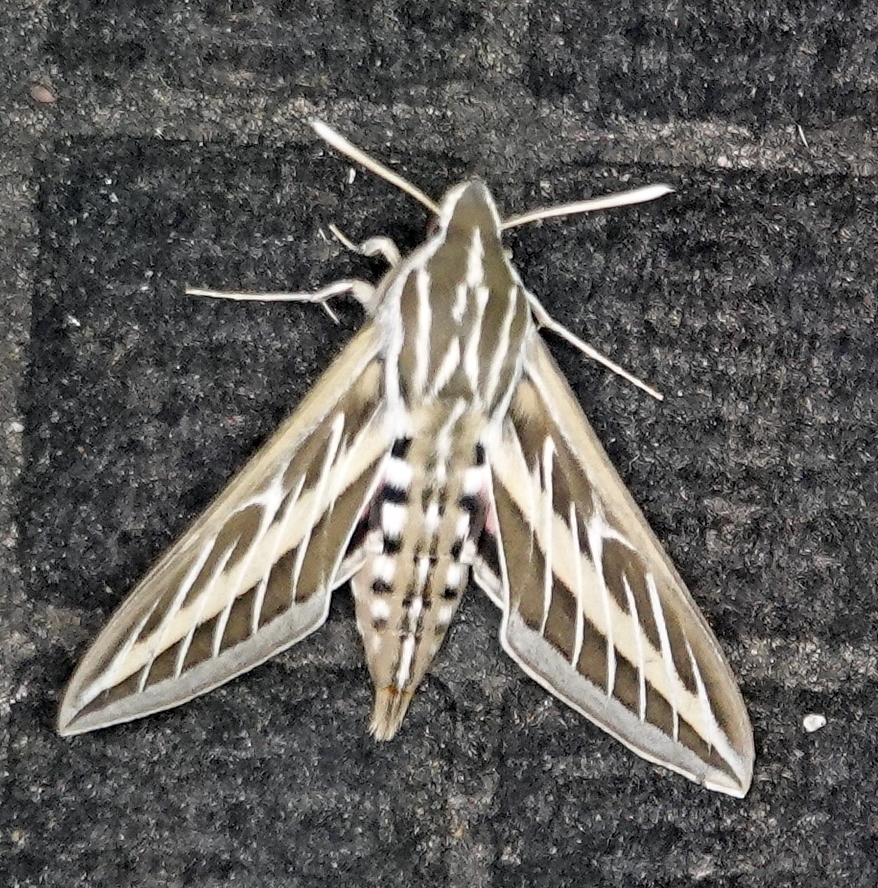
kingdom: Animalia
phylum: Arthropoda
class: Insecta
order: Lepidoptera
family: Sphingidae
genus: Hyles
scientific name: Hyles lineata
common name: White-lined sphinx
